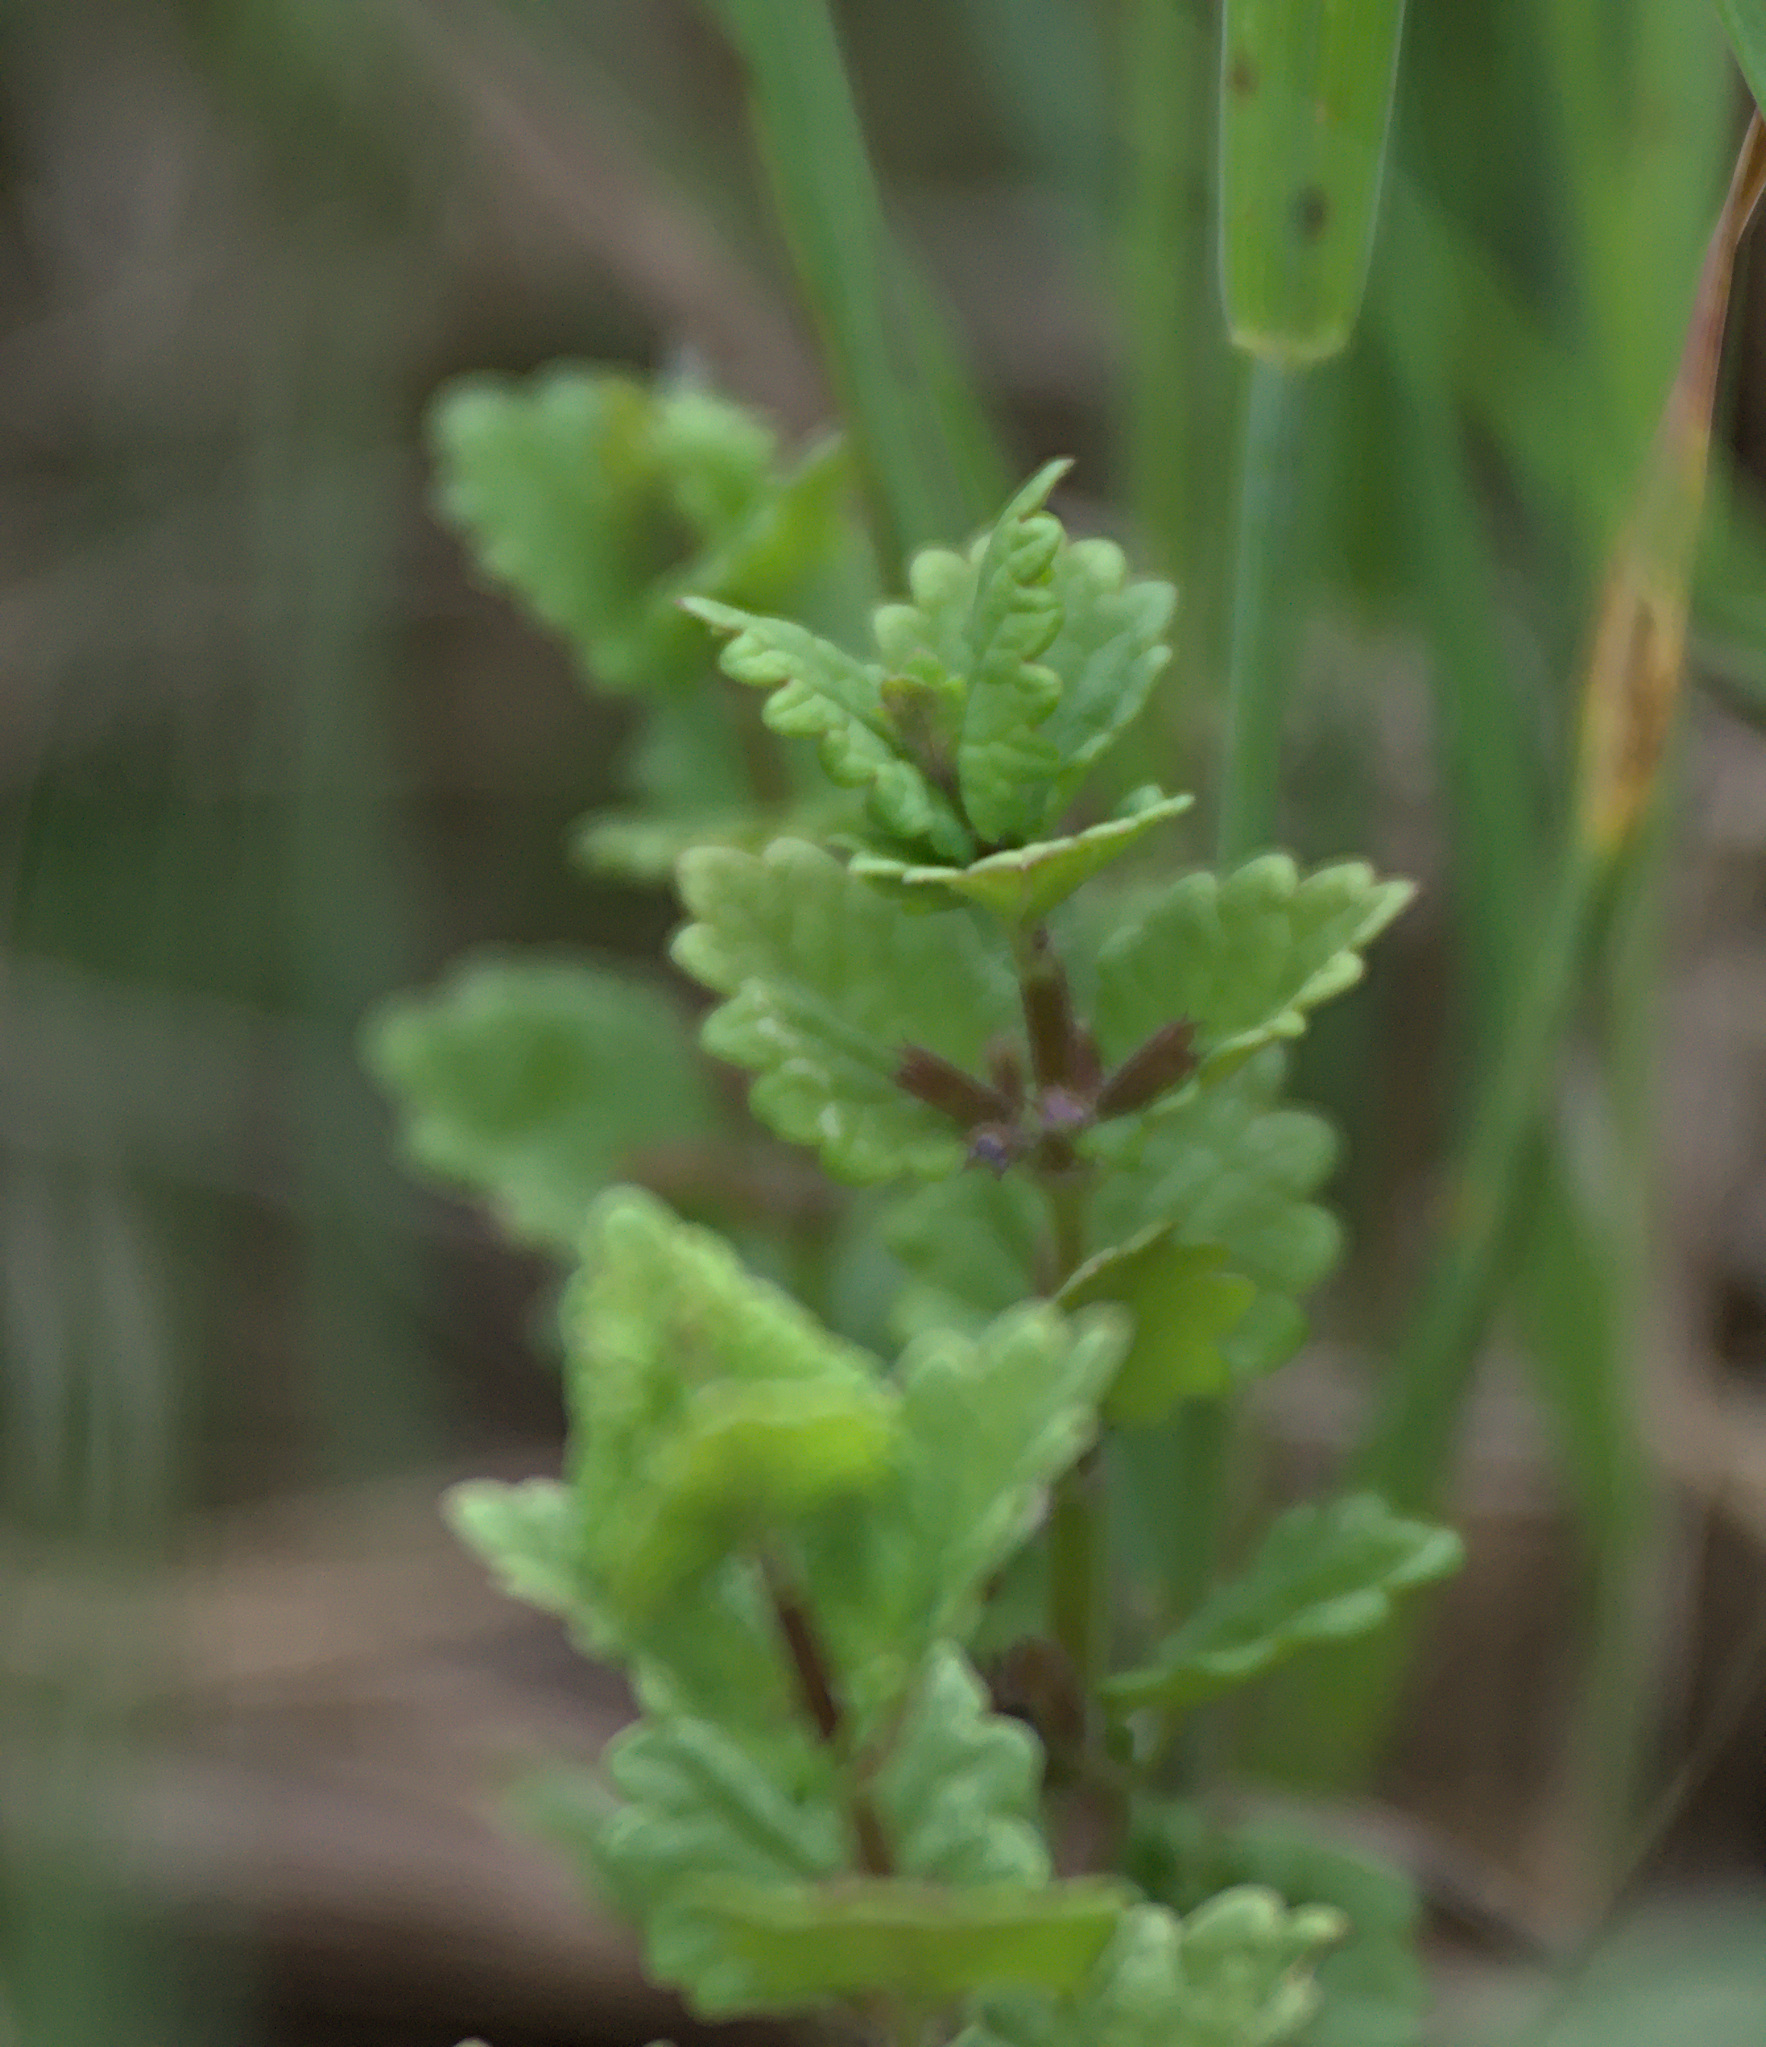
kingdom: Plantae
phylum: Tracheophyta
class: Magnoliopsida
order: Lamiales
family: Lamiaceae
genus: Glechoma
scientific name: Glechoma hederacea
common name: Ground ivy
